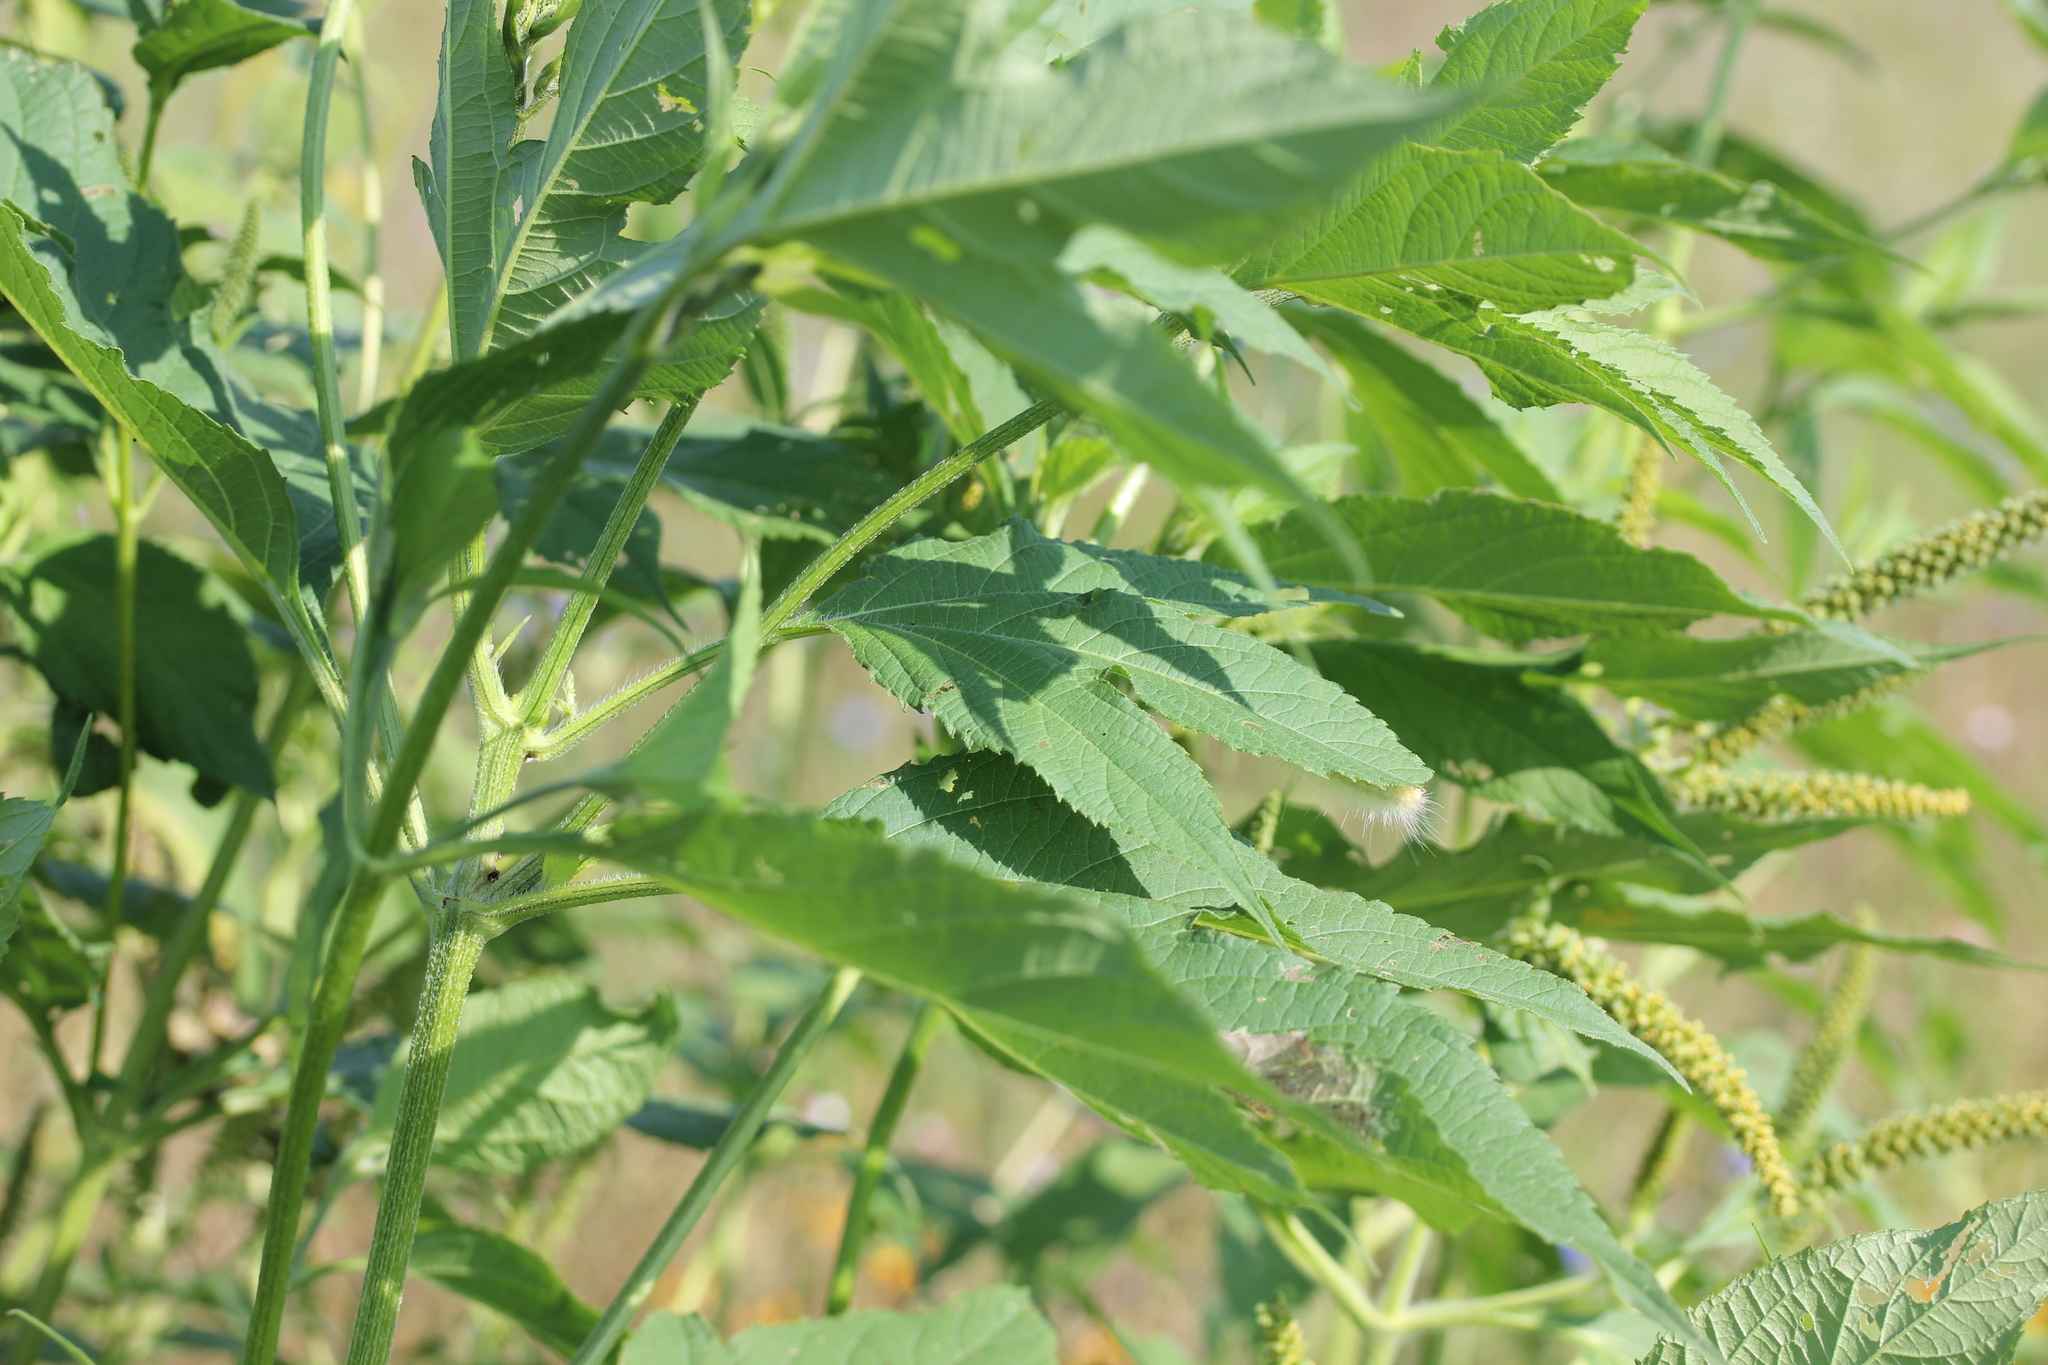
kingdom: Plantae
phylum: Tracheophyta
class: Magnoliopsida
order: Asterales
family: Asteraceae
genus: Ambrosia
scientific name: Ambrosia trifida
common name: Giant ragweed
